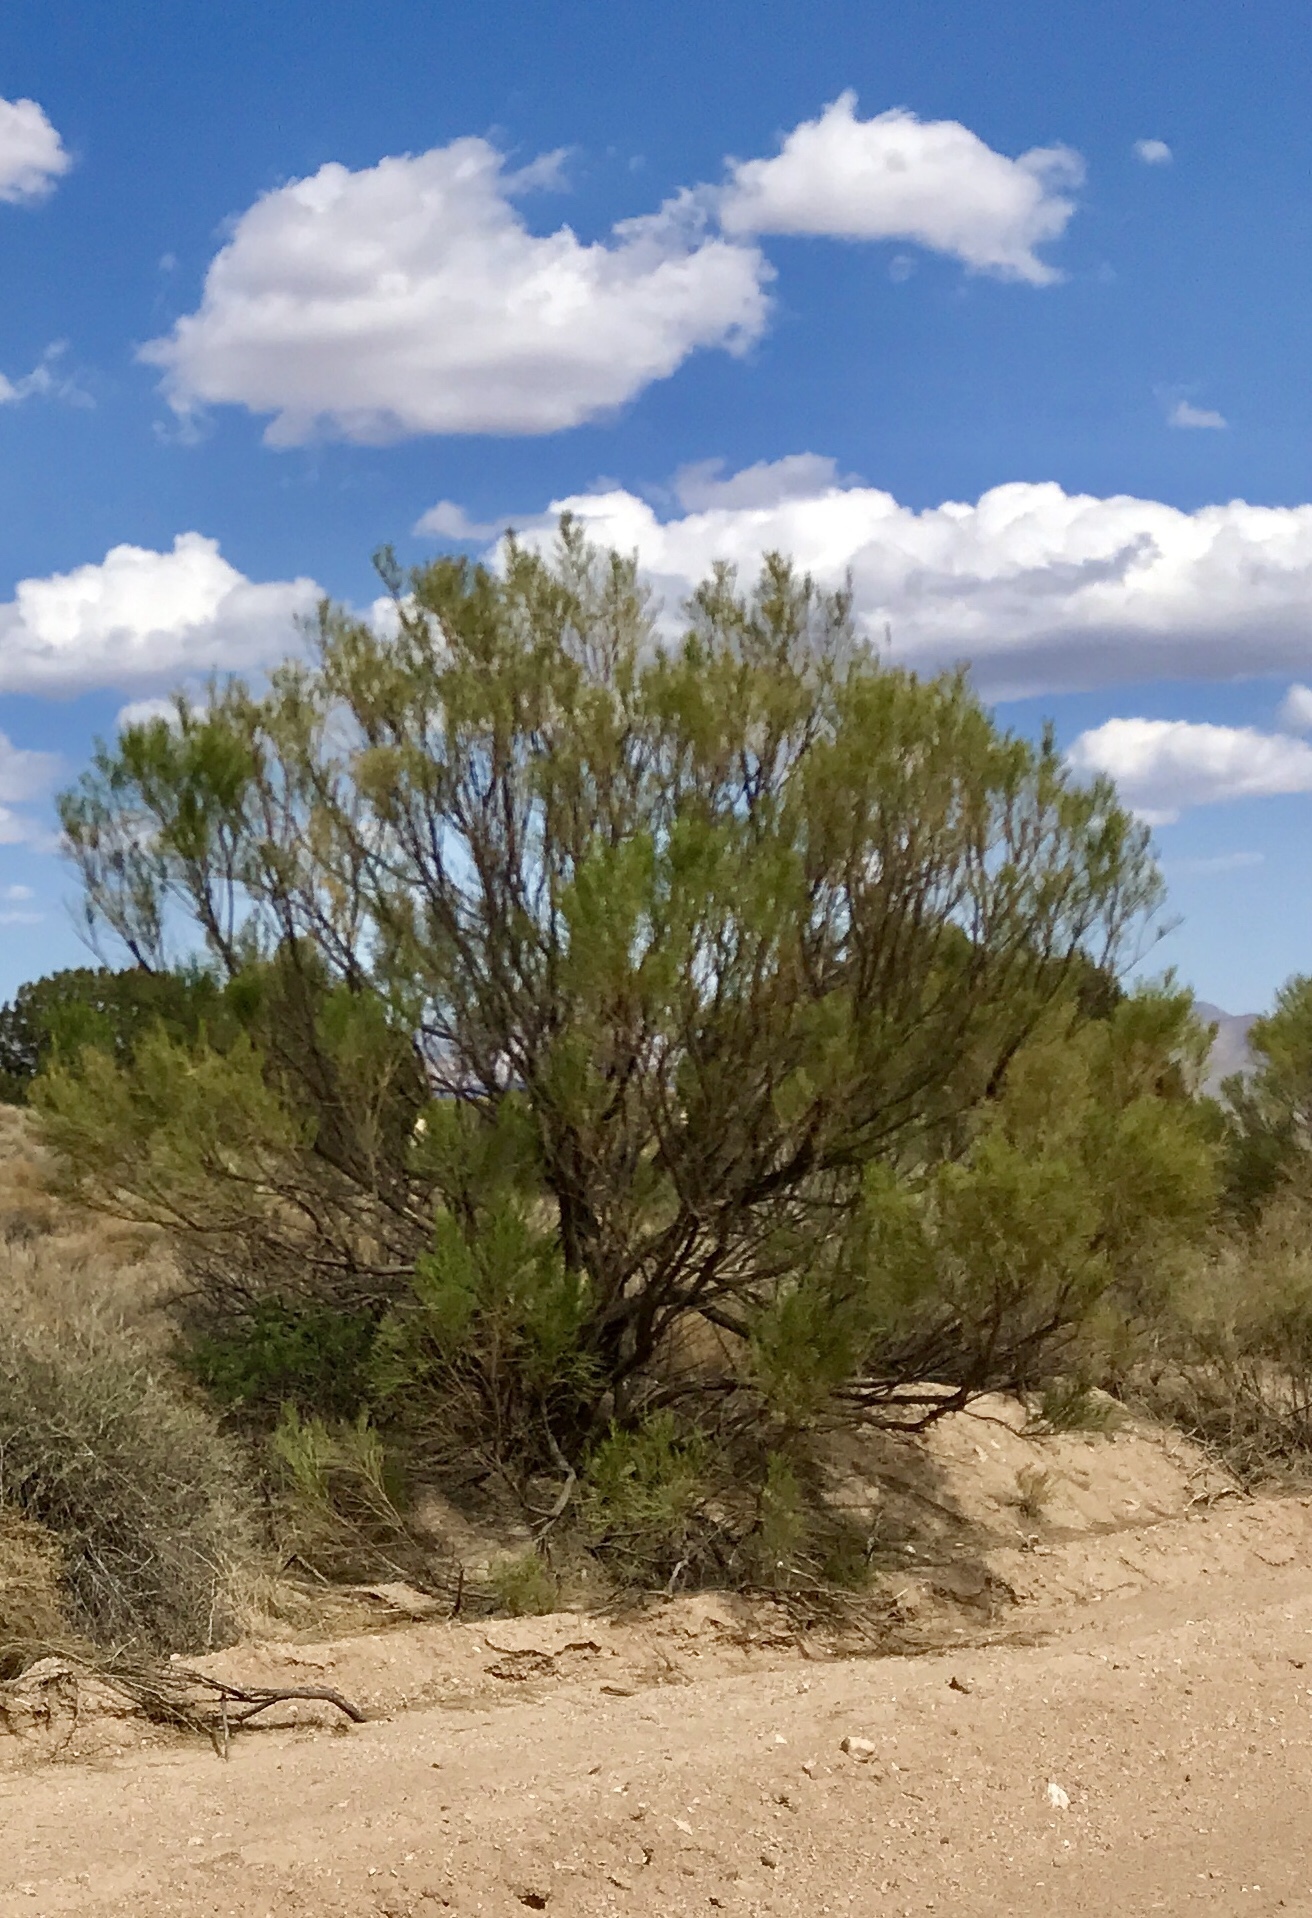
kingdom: Plantae
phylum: Tracheophyta
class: Magnoliopsida
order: Asterales
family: Asteraceae
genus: Baccharis
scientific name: Baccharis sarothroides
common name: Desert-broom
